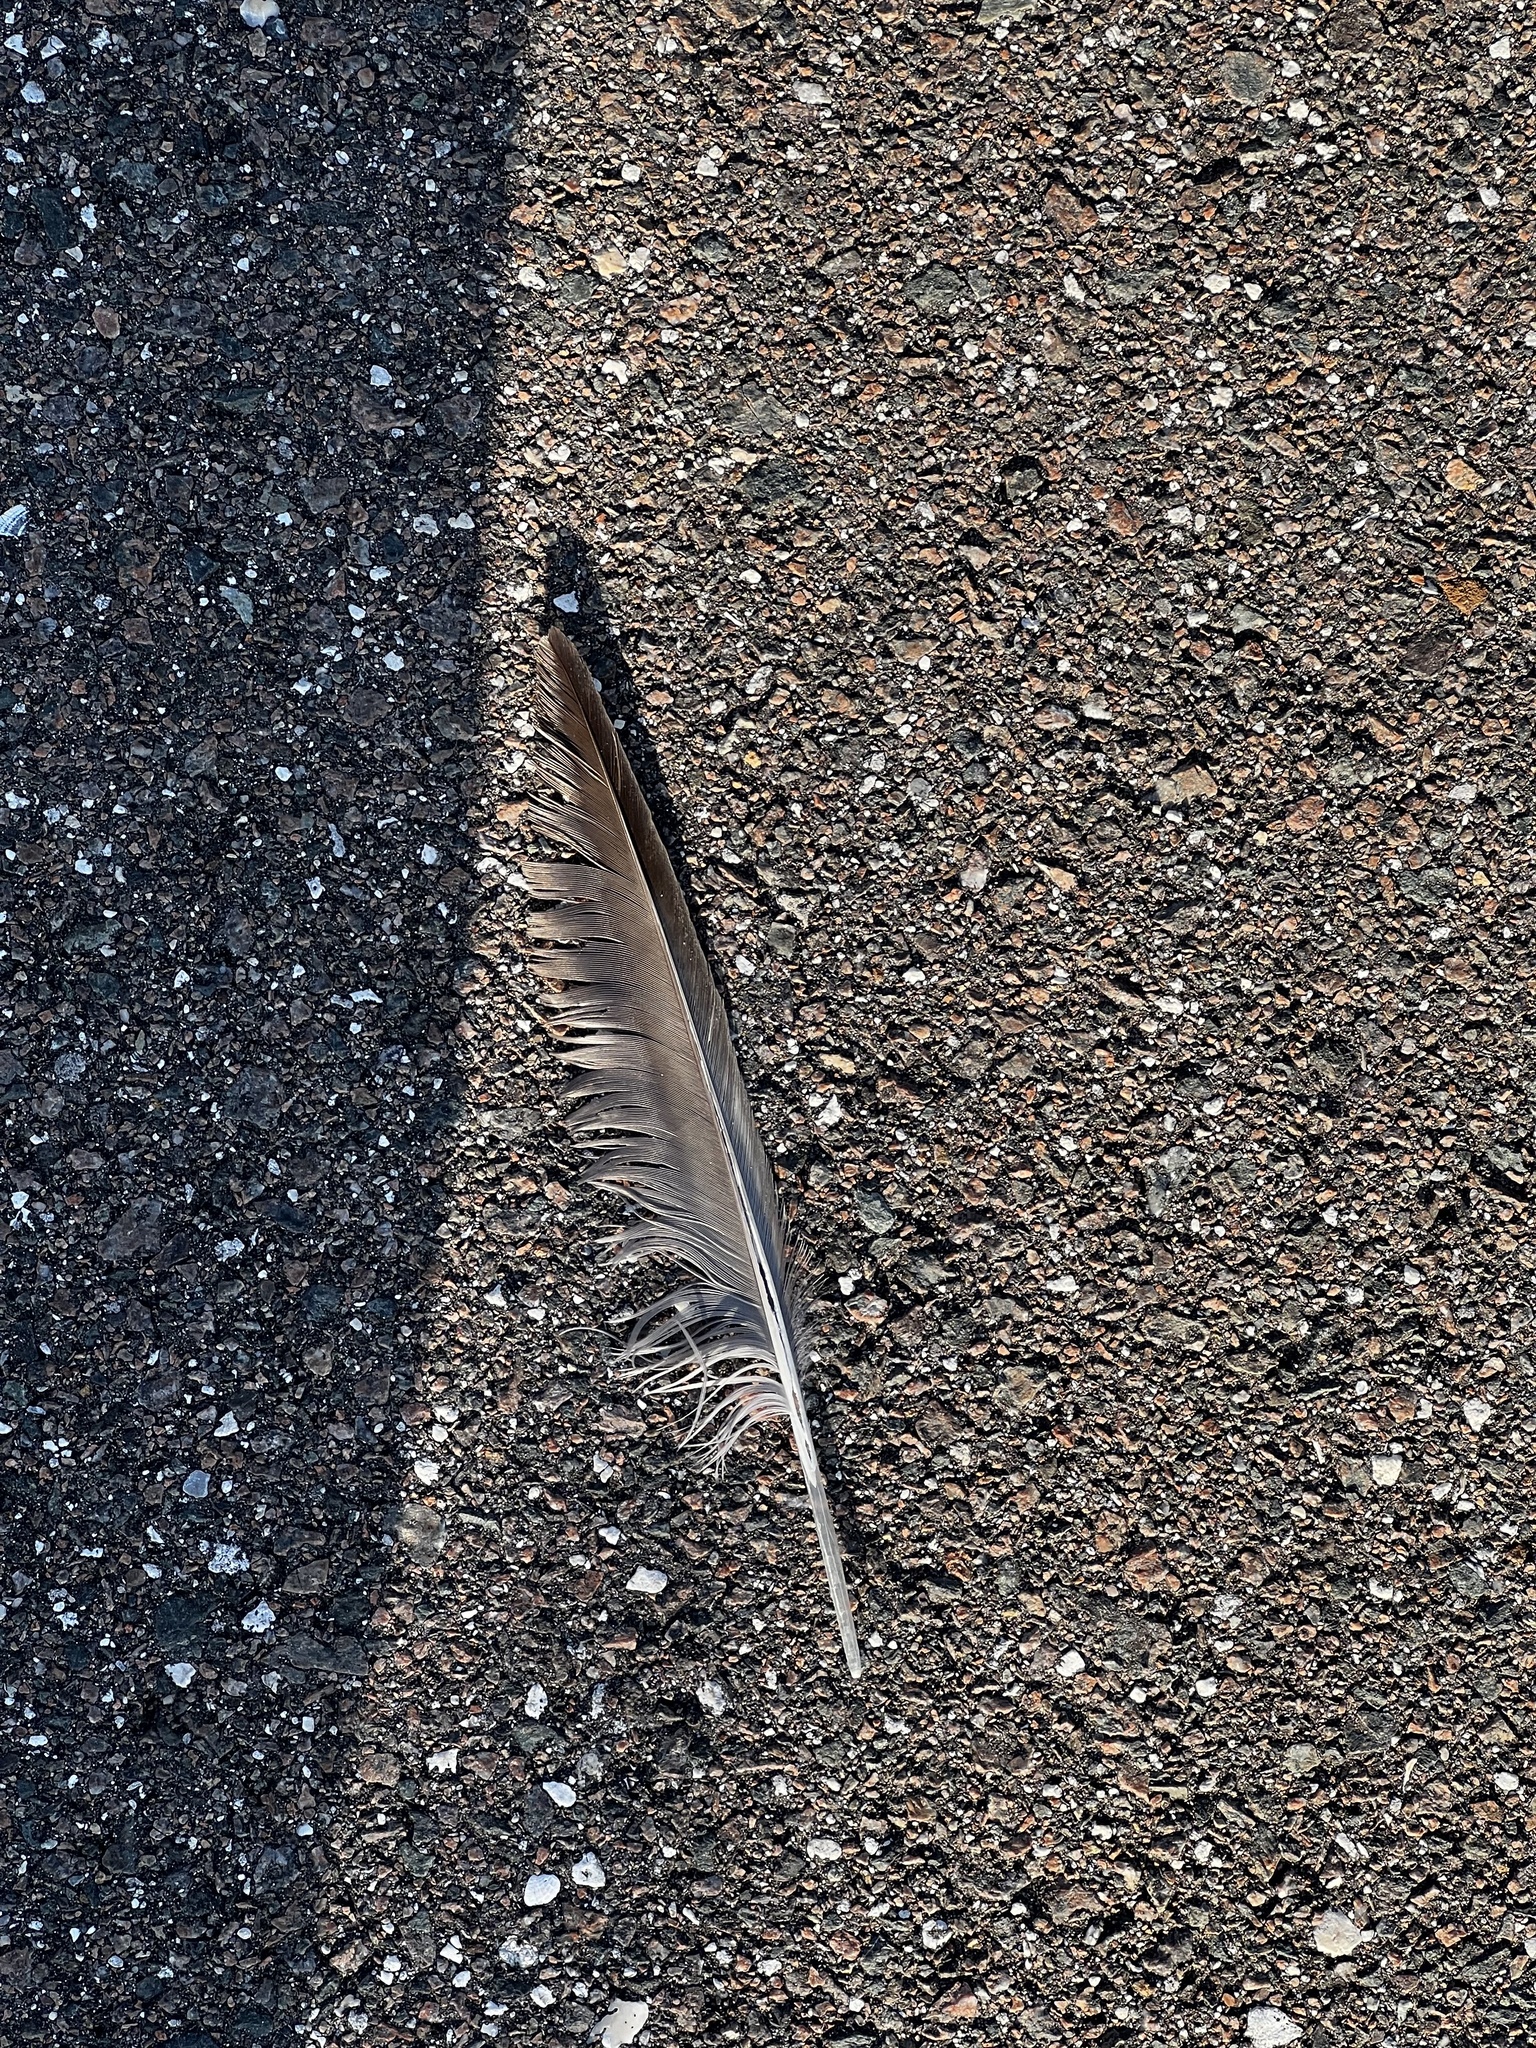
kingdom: Animalia
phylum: Chordata
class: Aves
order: Accipitriformes
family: Cathartidae
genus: Cathartes
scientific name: Cathartes aura
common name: Turkey vulture
